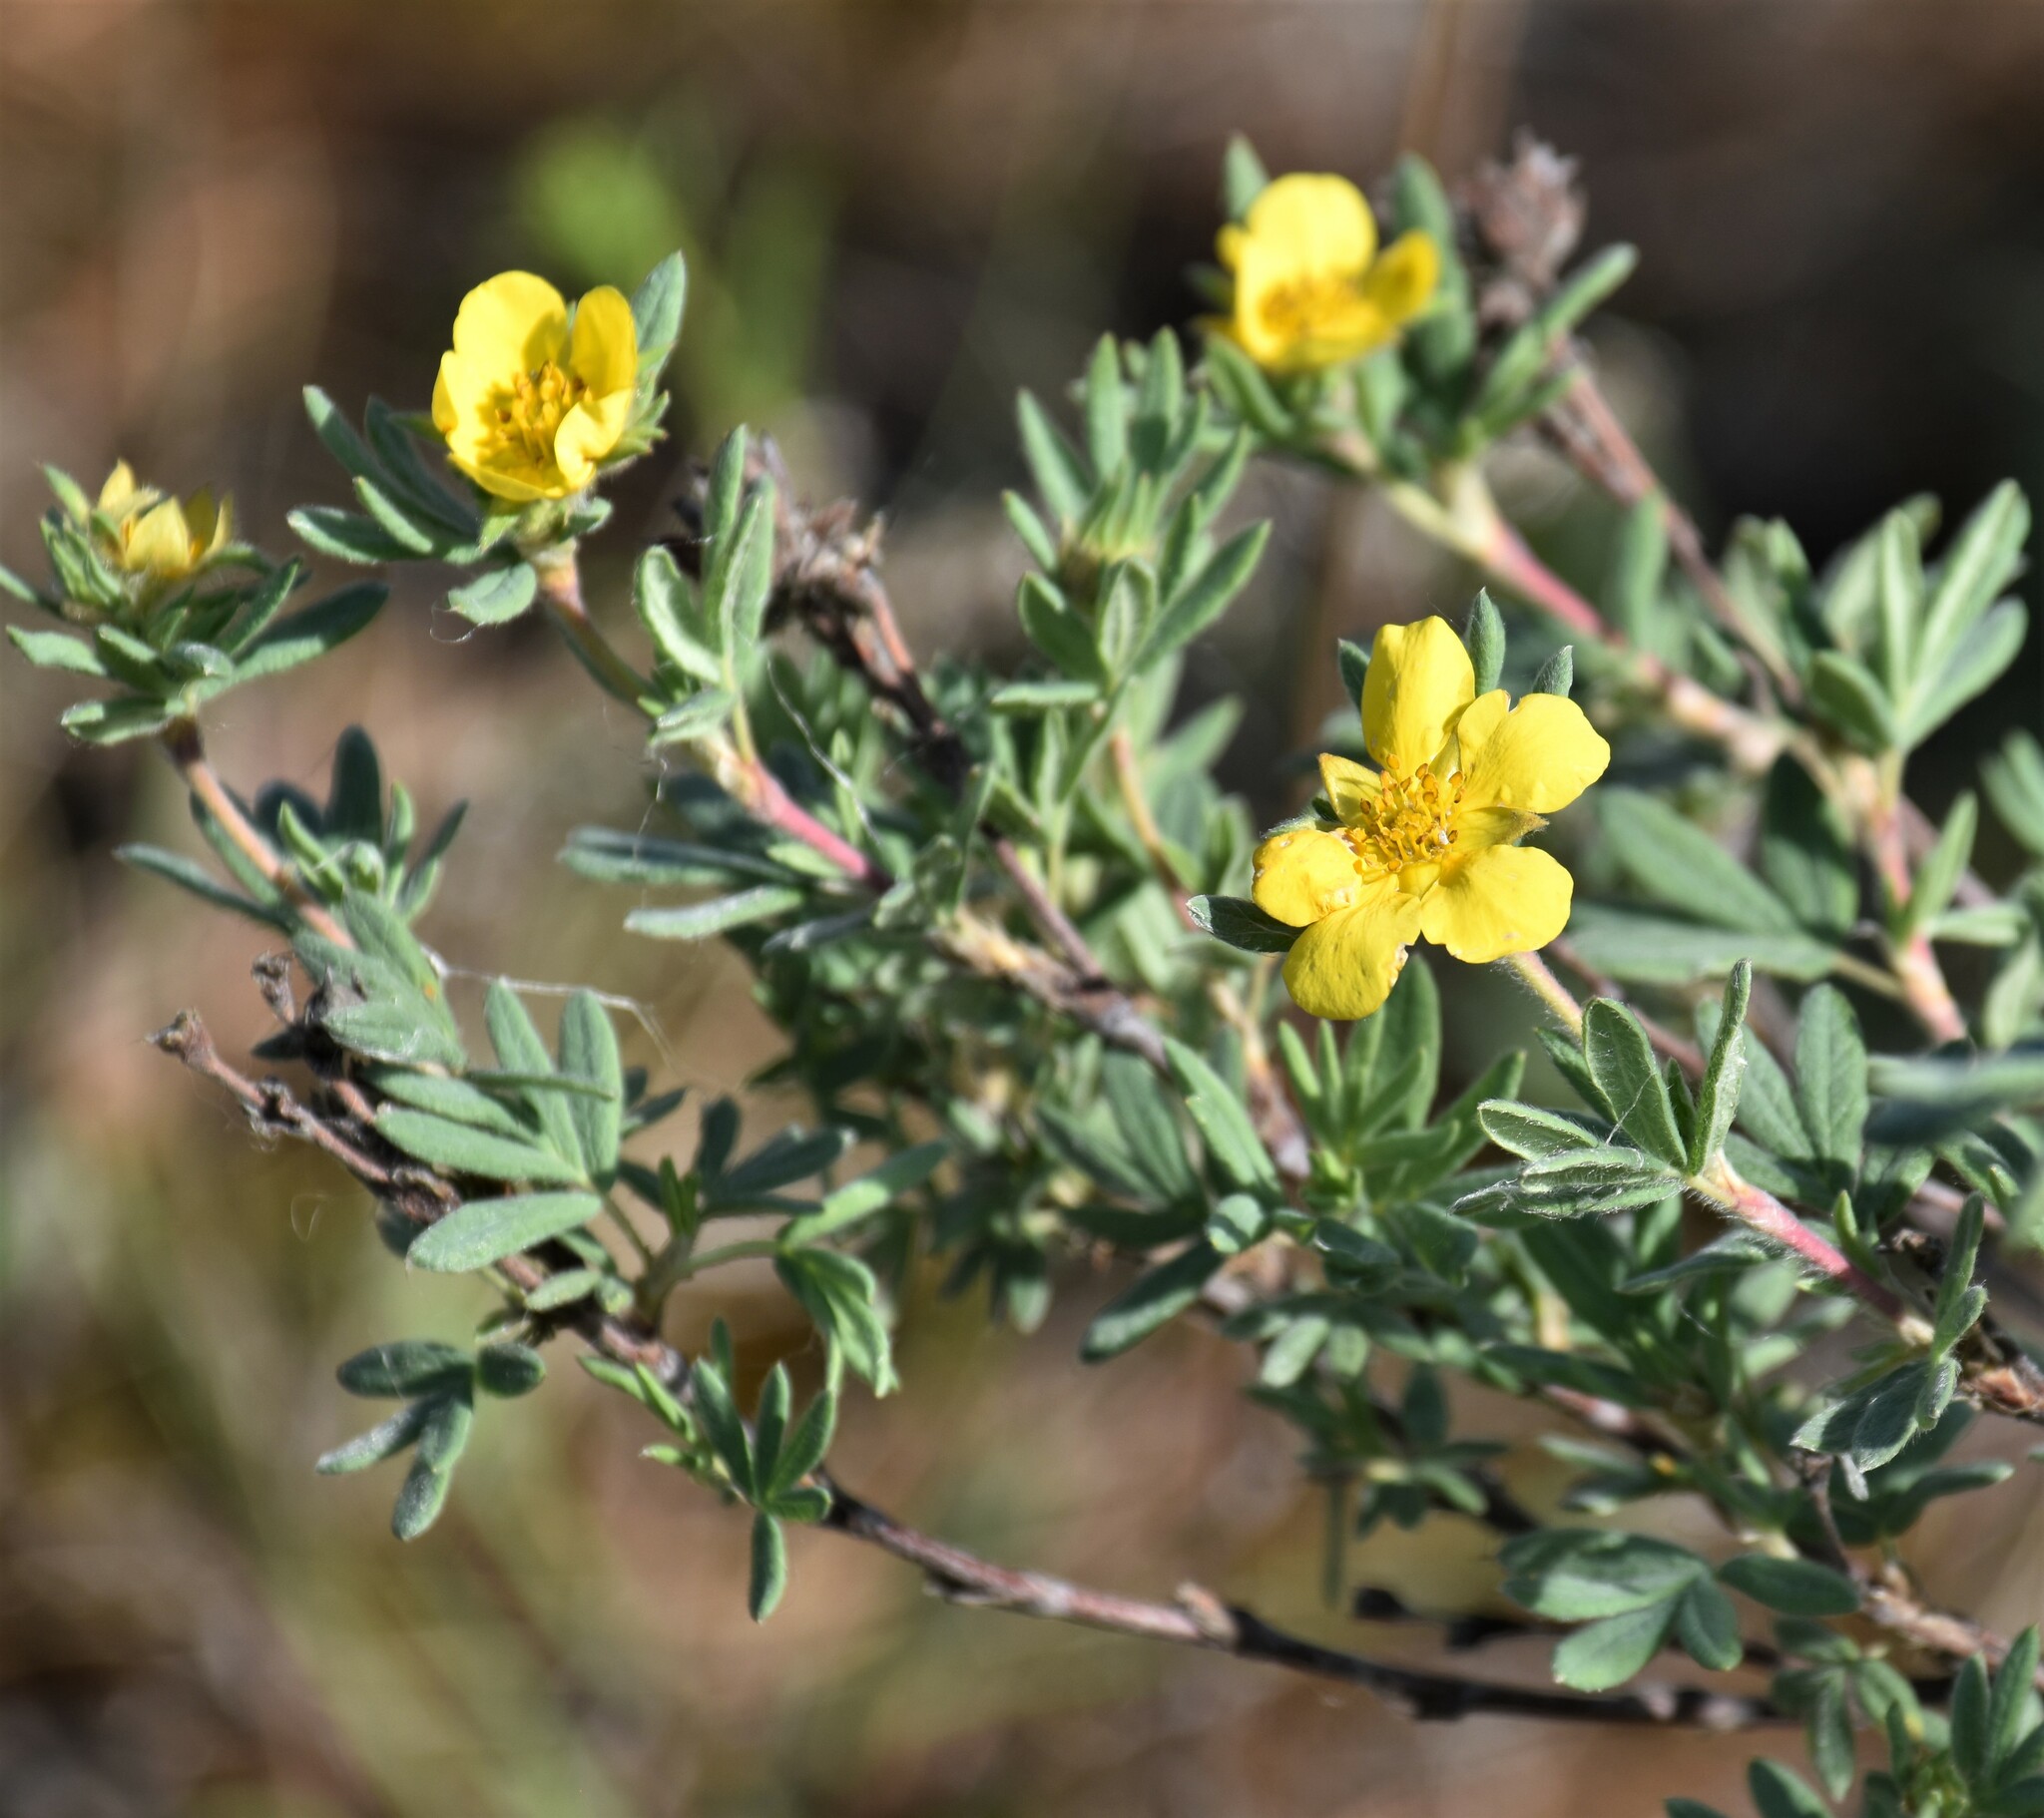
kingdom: Plantae
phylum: Tracheophyta
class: Magnoliopsida
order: Rosales
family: Rosaceae
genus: Dasiphora
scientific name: Dasiphora fruticosa
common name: Shrubby cinquefoil
